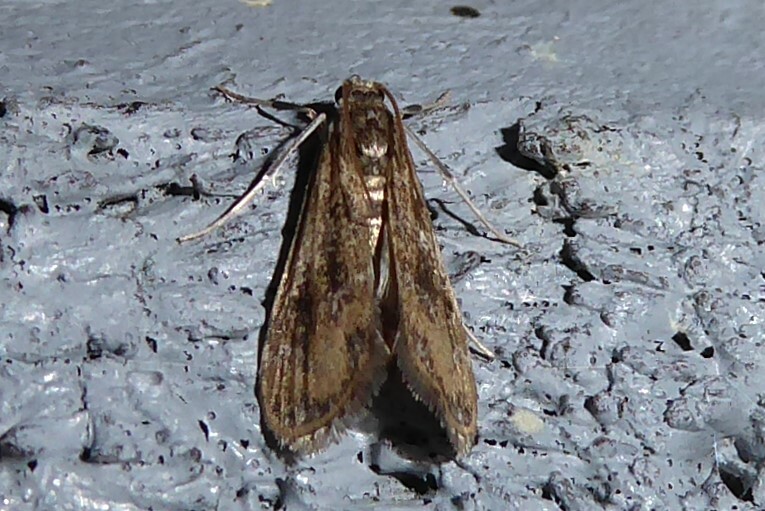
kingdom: Animalia
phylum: Arthropoda
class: Insecta
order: Lepidoptera
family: Crambidae
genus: Hygraula
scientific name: Hygraula nitens
